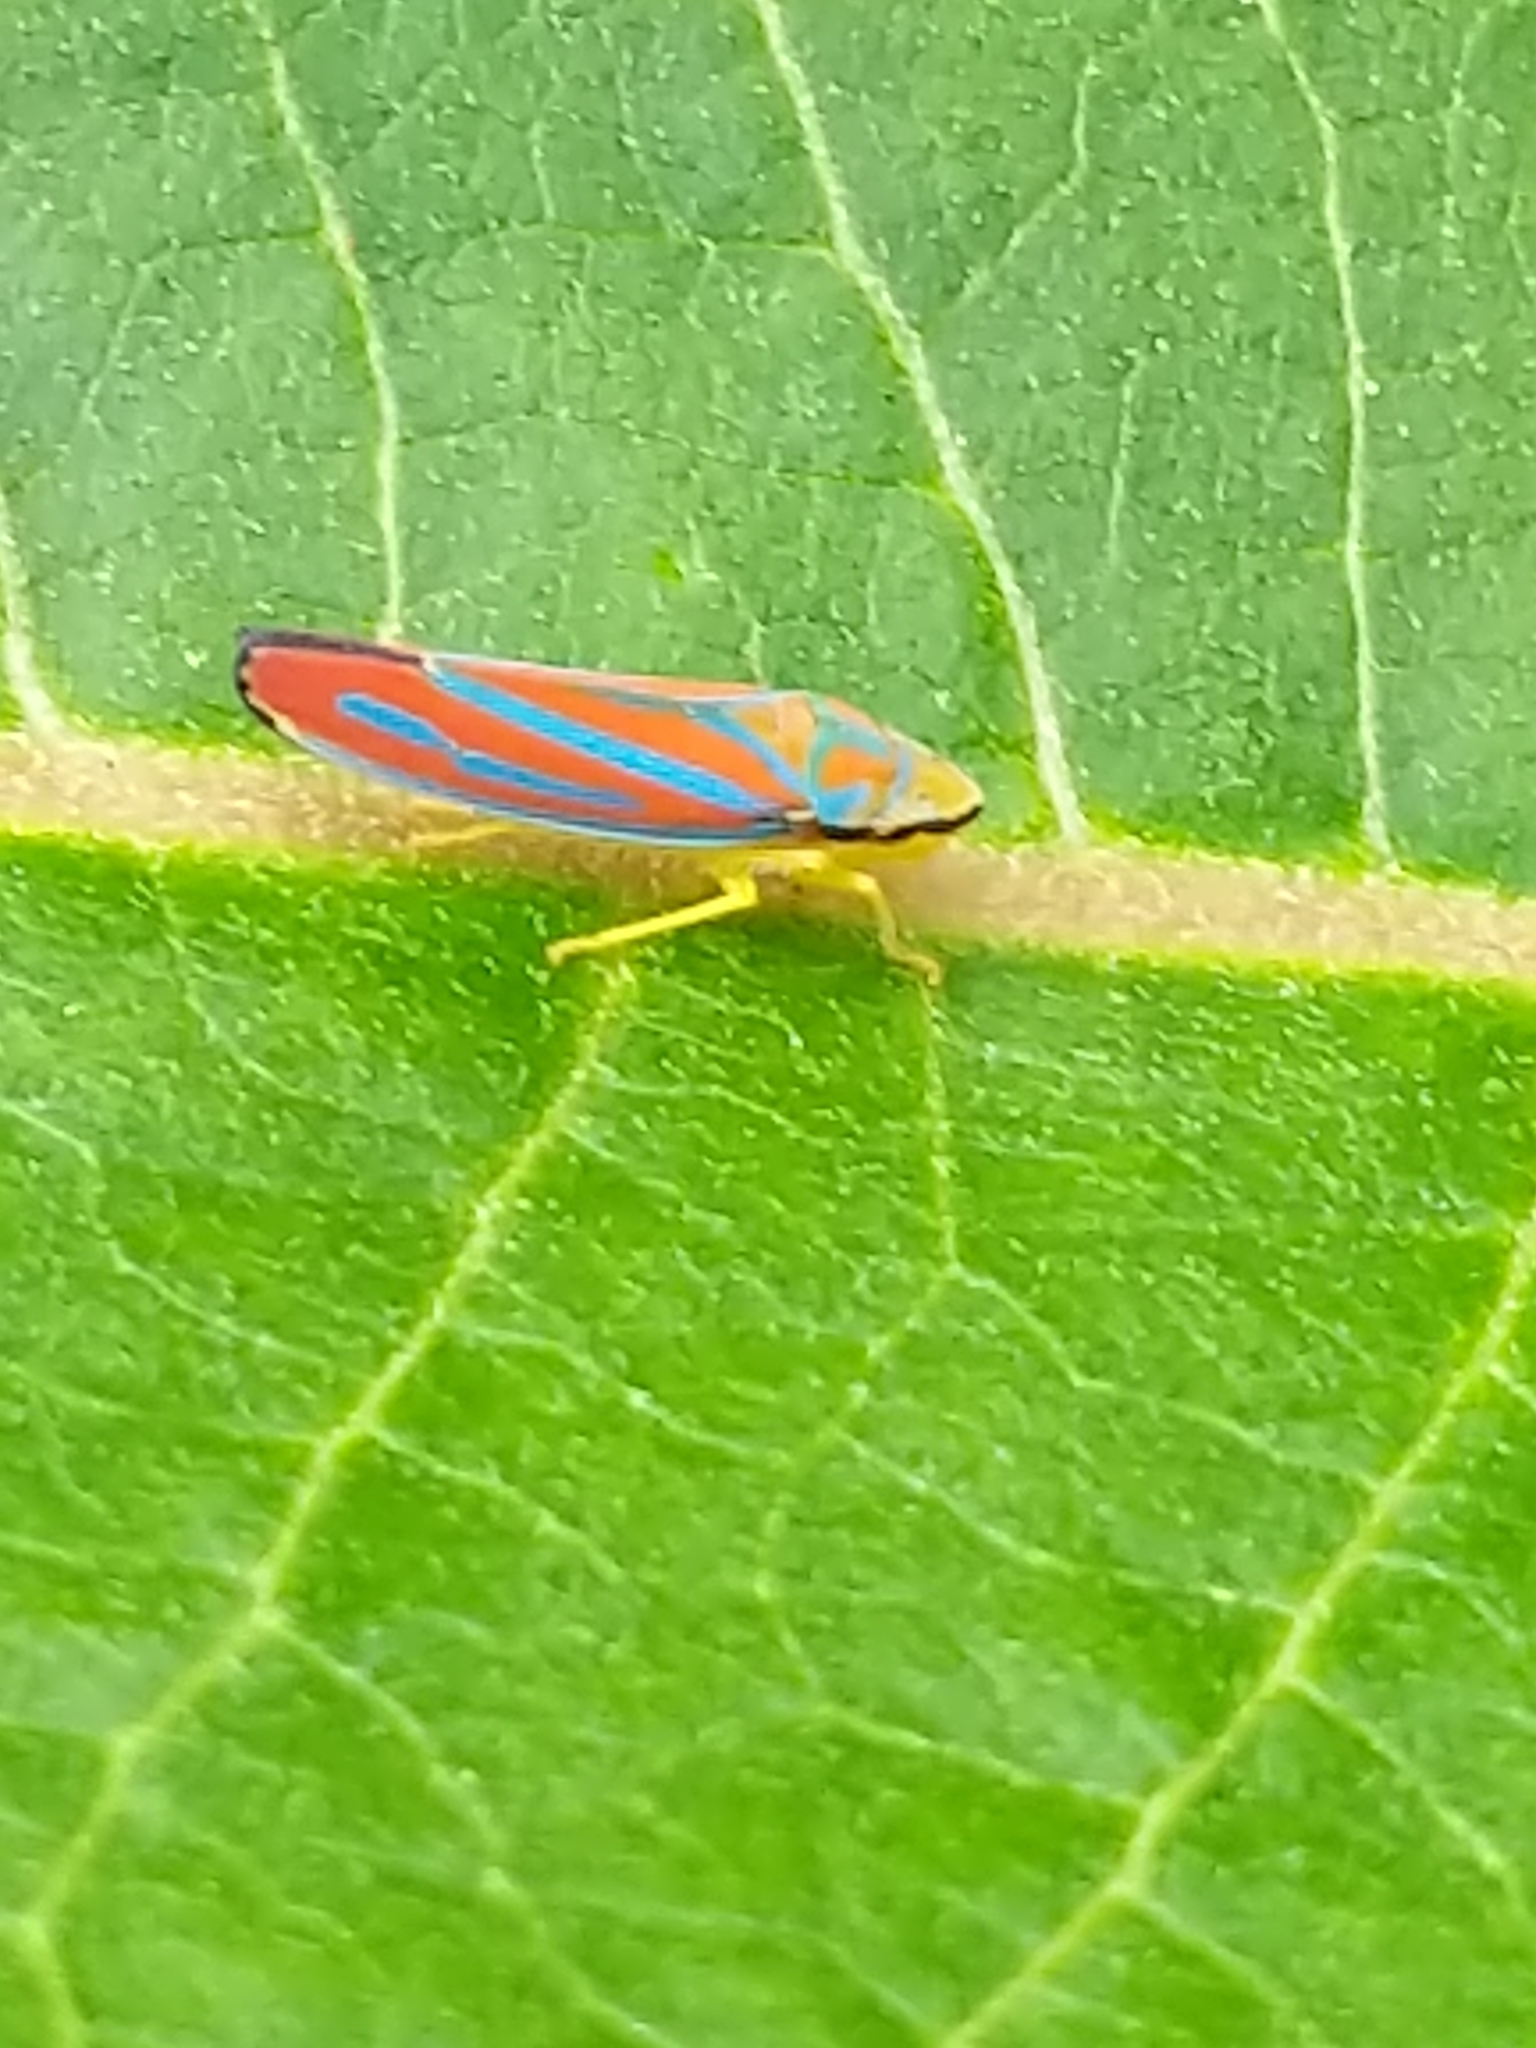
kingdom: Animalia
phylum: Arthropoda
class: Insecta
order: Hemiptera
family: Cicadellidae
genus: Graphocephala
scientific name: Graphocephala coccinea
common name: Candy-striped leafhopper
